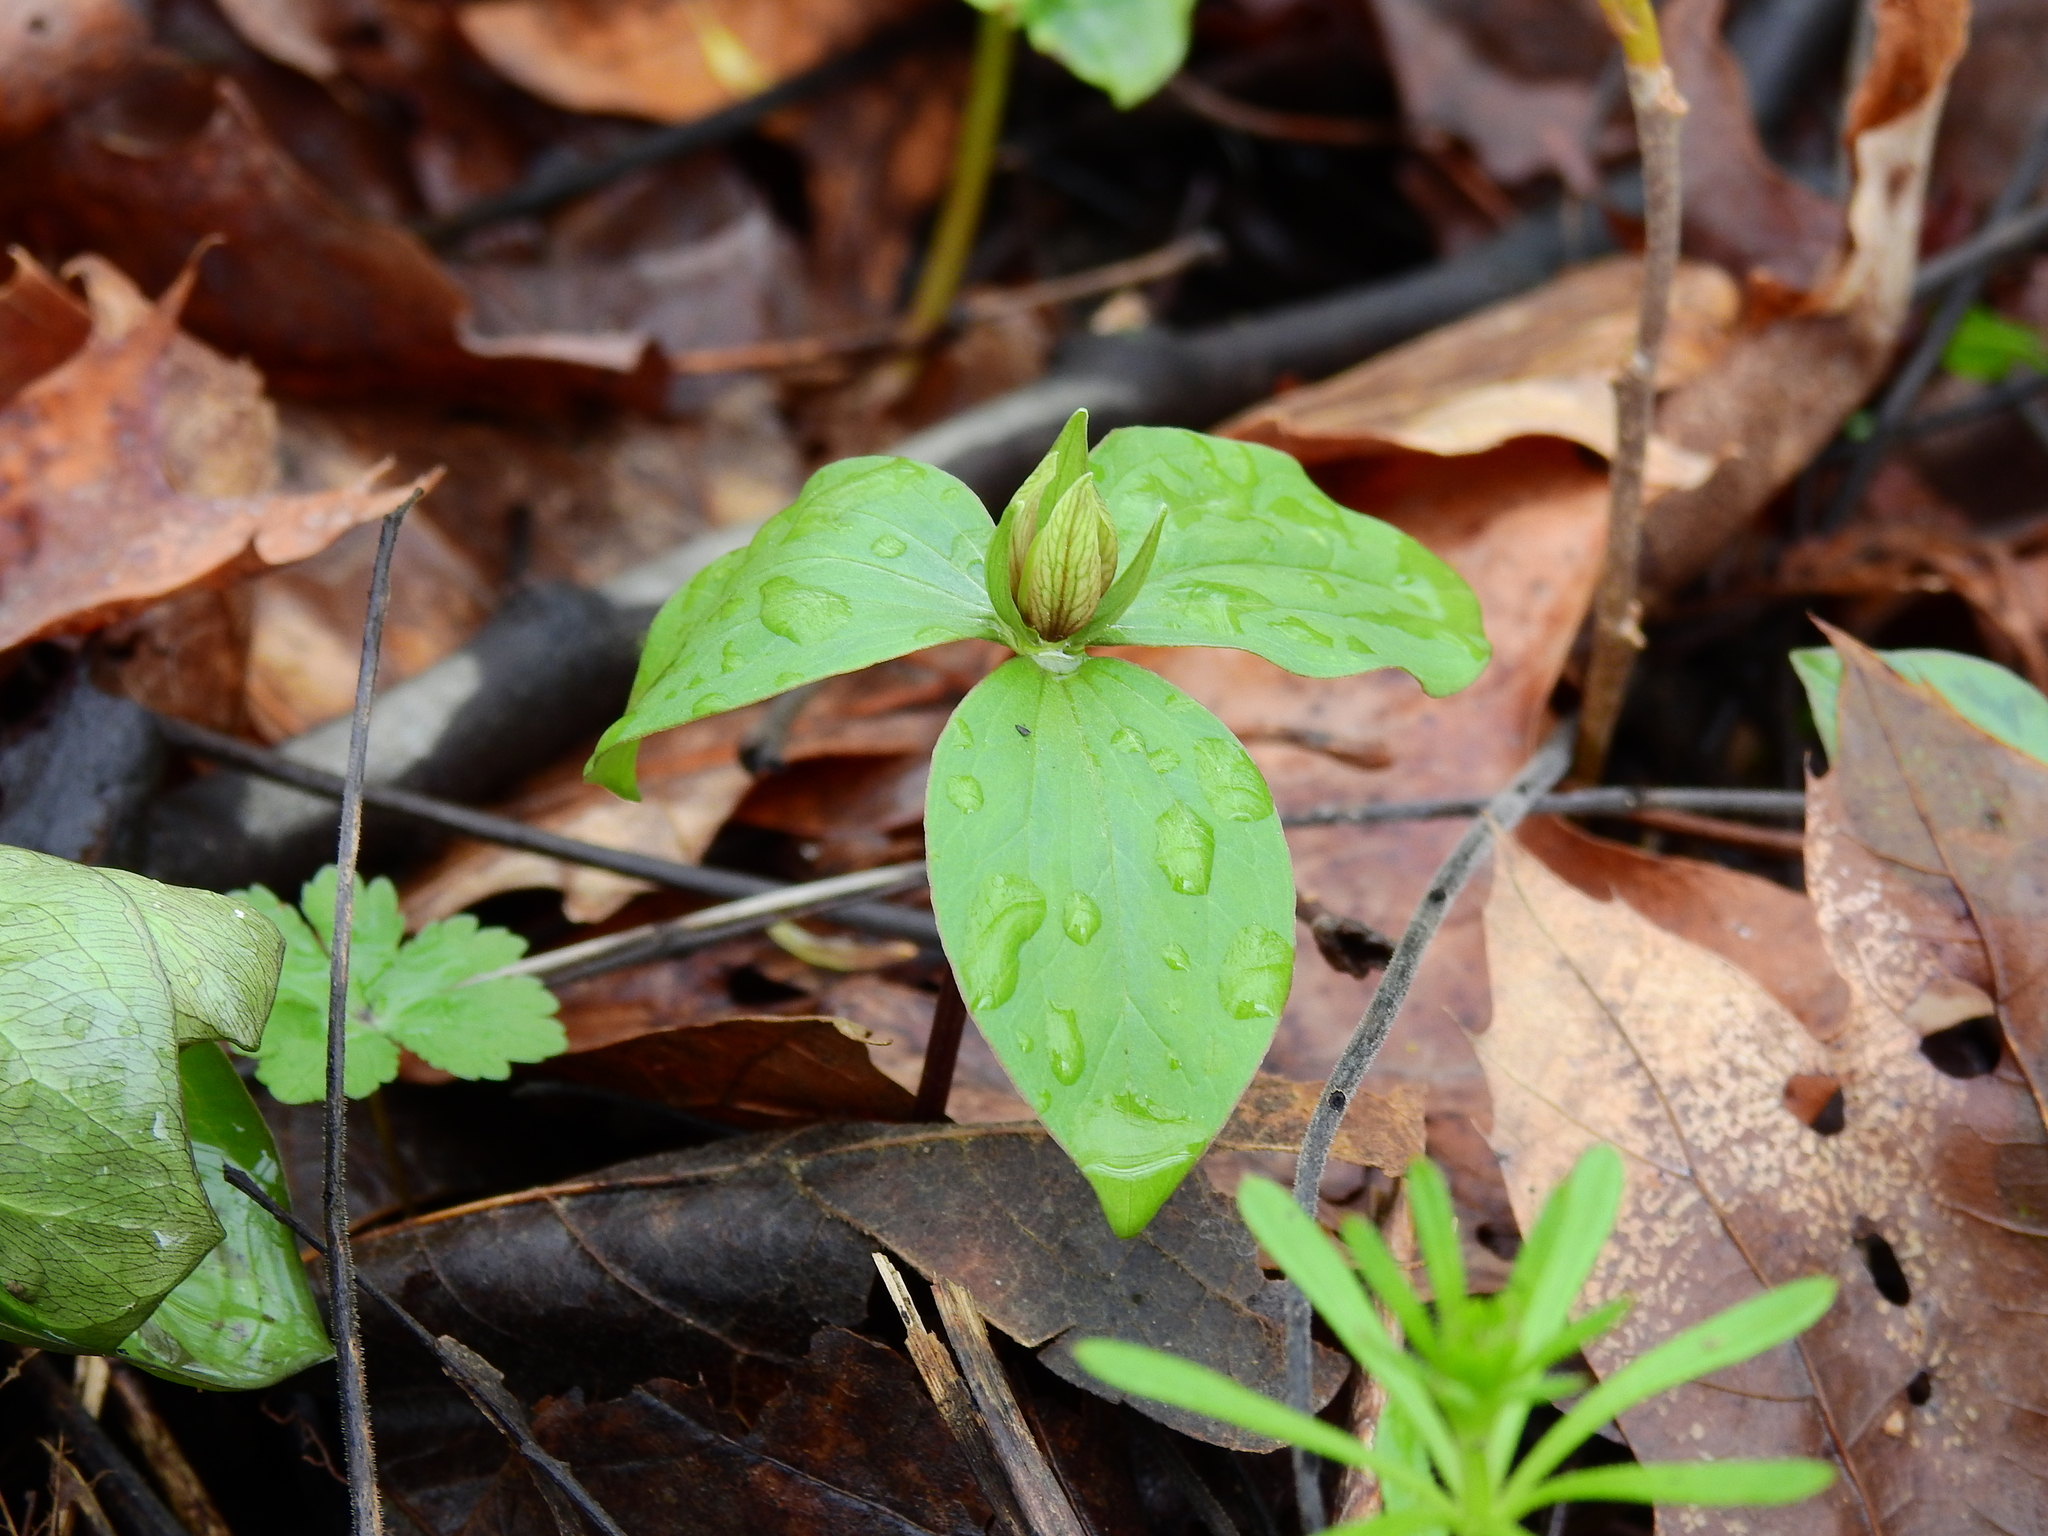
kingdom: Plantae
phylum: Tracheophyta
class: Liliopsida
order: Liliales
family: Melanthiaceae
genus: Trillium
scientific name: Trillium sessile
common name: Sessile trillium
